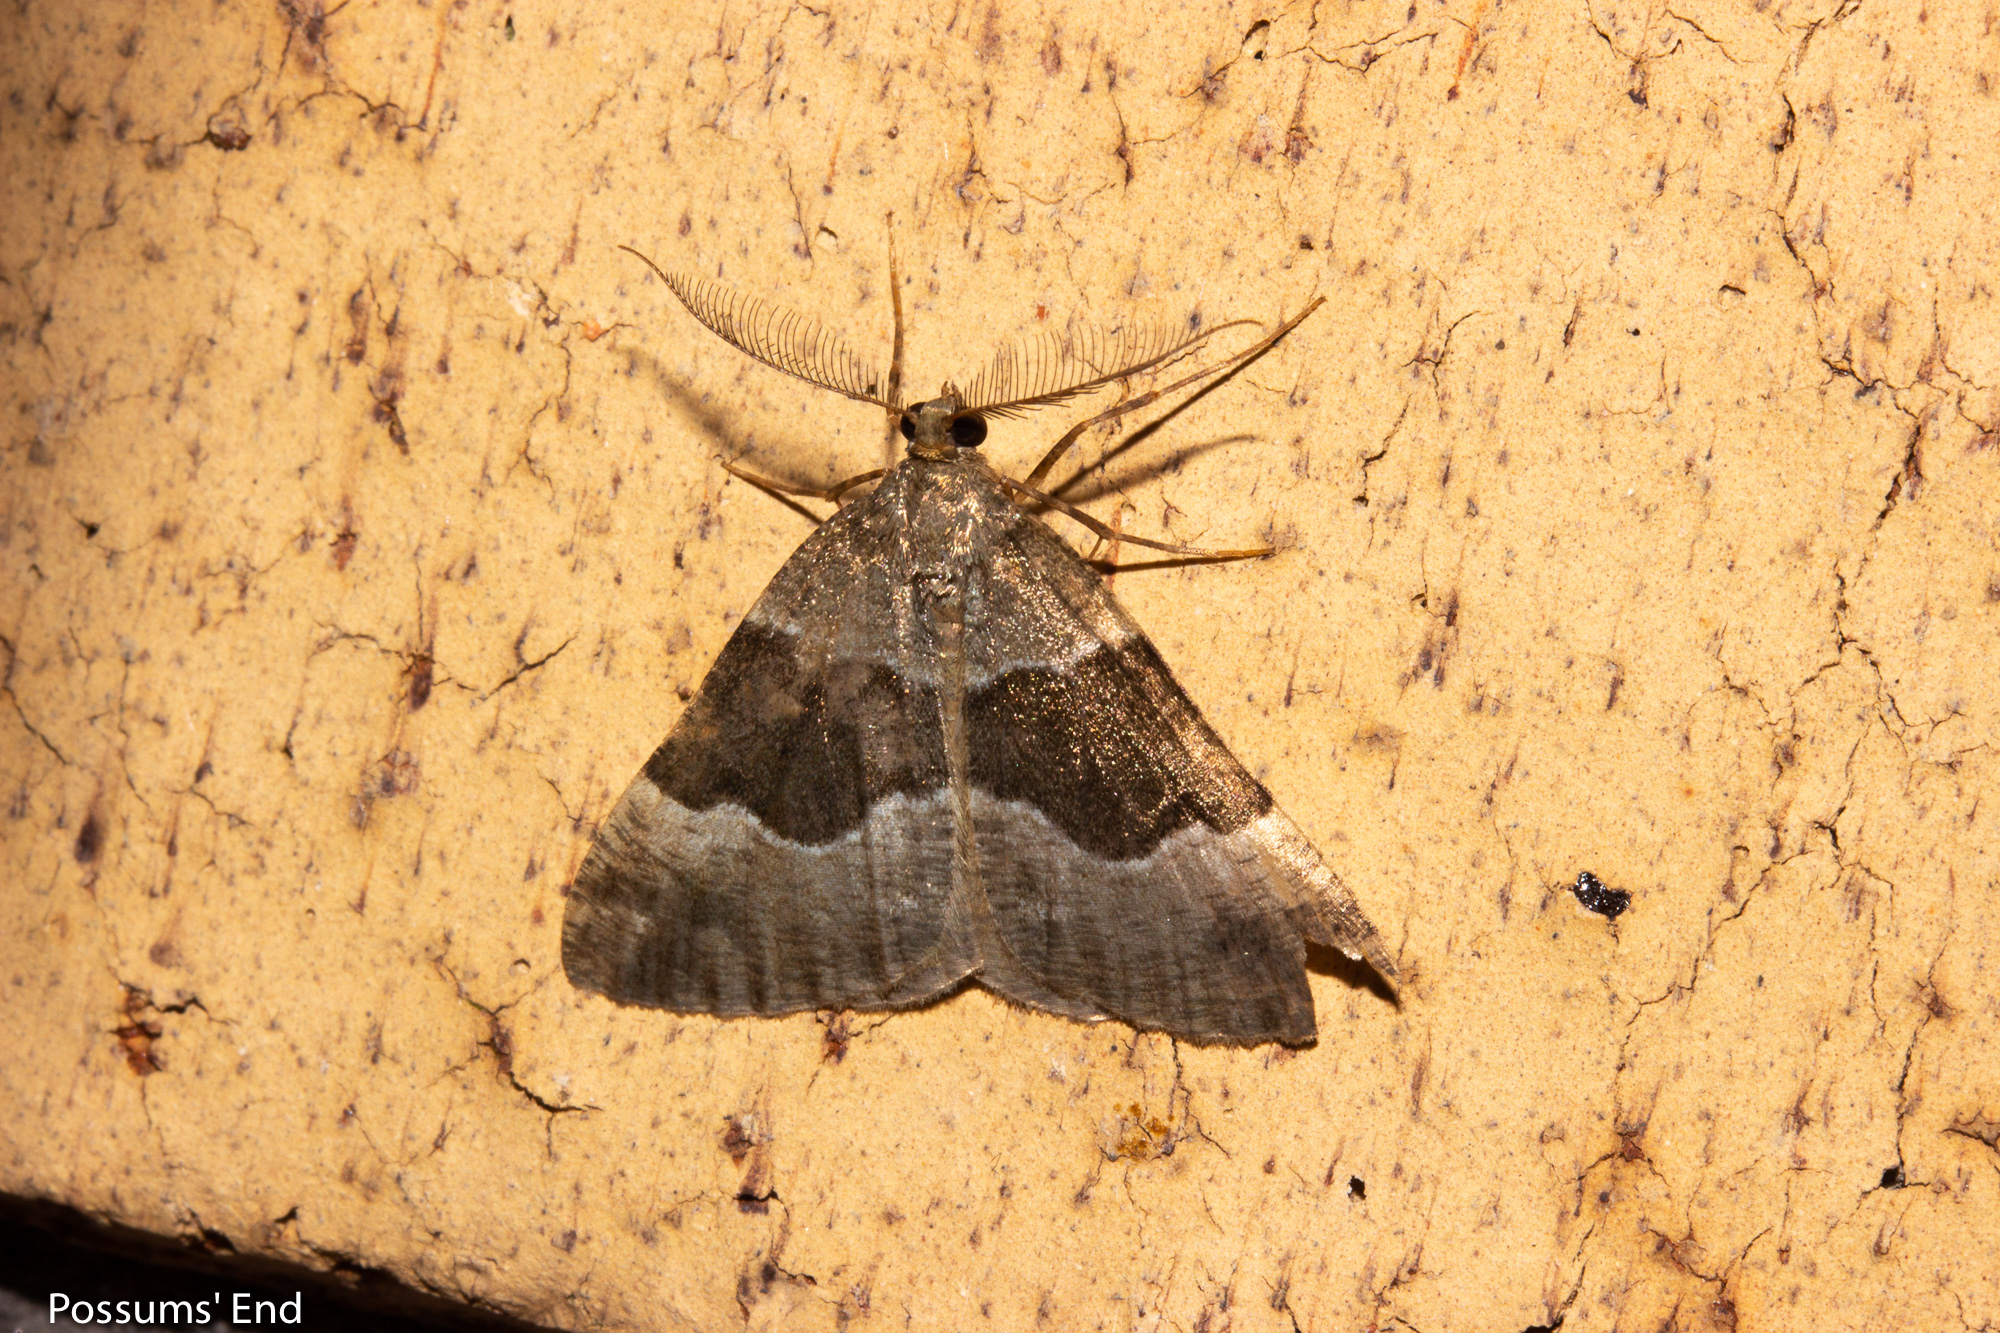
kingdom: Animalia
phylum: Arthropoda
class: Insecta
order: Lepidoptera
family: Geometridae
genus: Pseudocoremia
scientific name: Pseudocoremia
